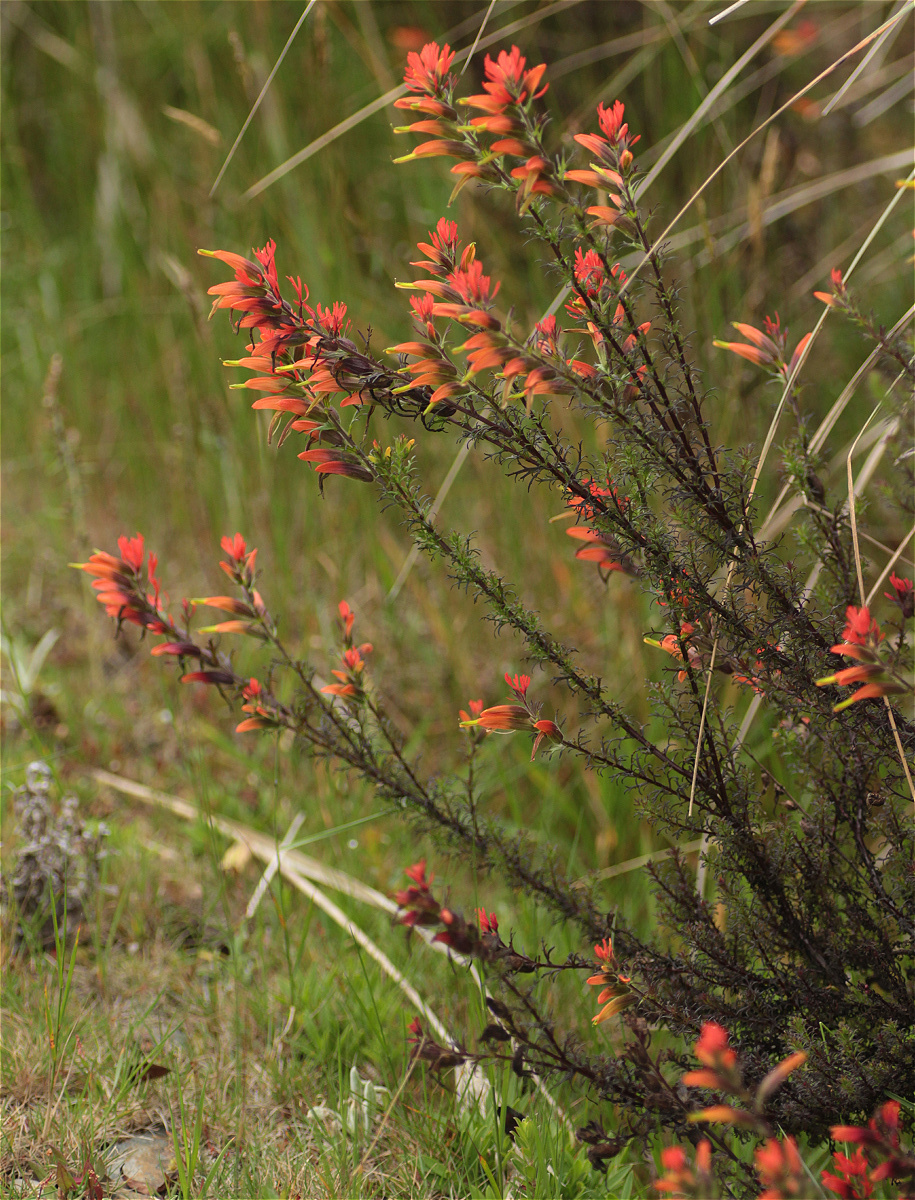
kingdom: Plantae
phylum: Tracheophyta
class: Magnoliopsida
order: Lamiales
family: Orobanchaceae
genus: Castilleja
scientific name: Castilleja fissifolia
